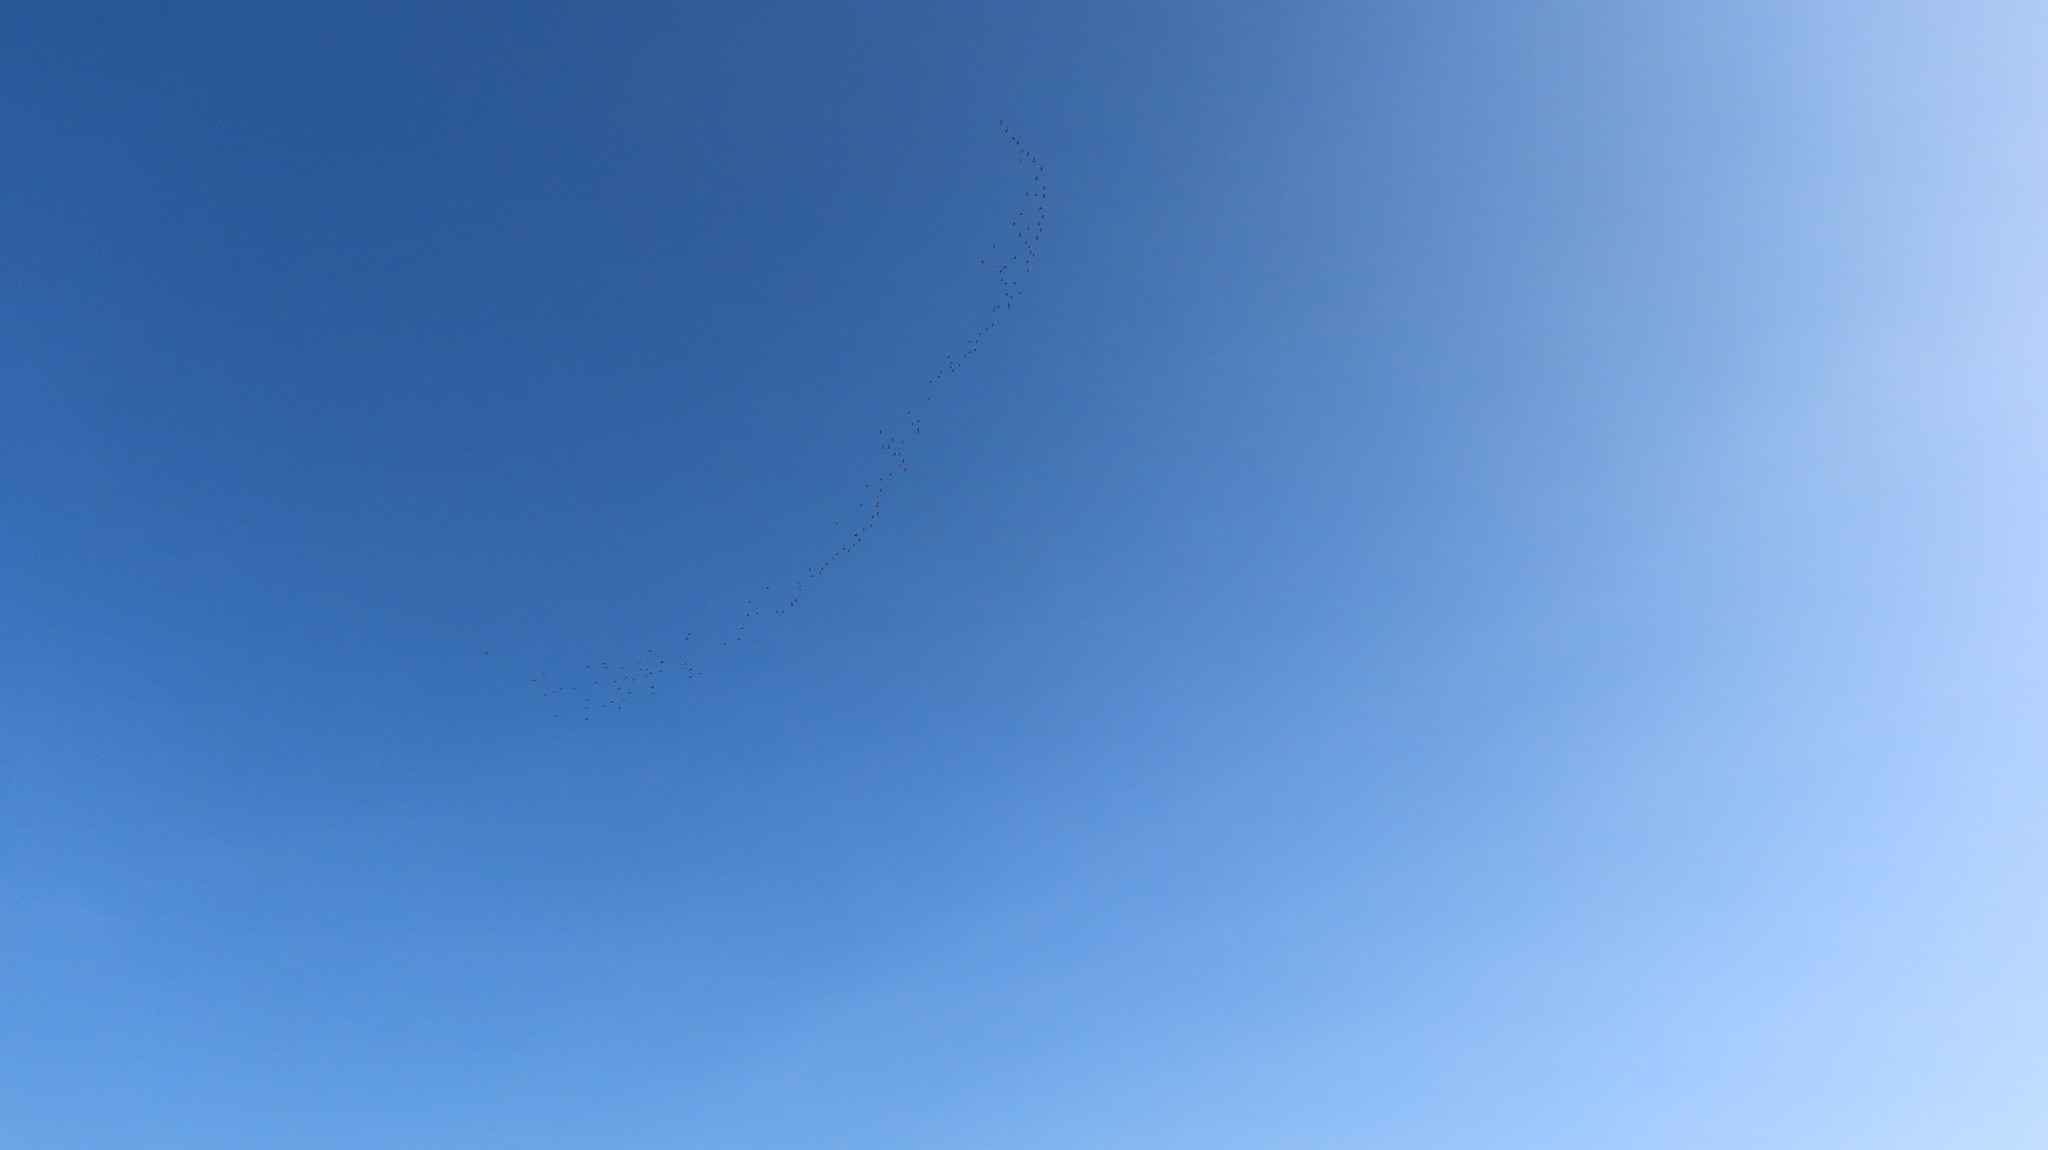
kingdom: Animalia
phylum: Chordata
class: Aves
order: Charadriiformes
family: Scolopacidae
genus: Limosa
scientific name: Limosa limosa
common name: Black-tailed godwit
